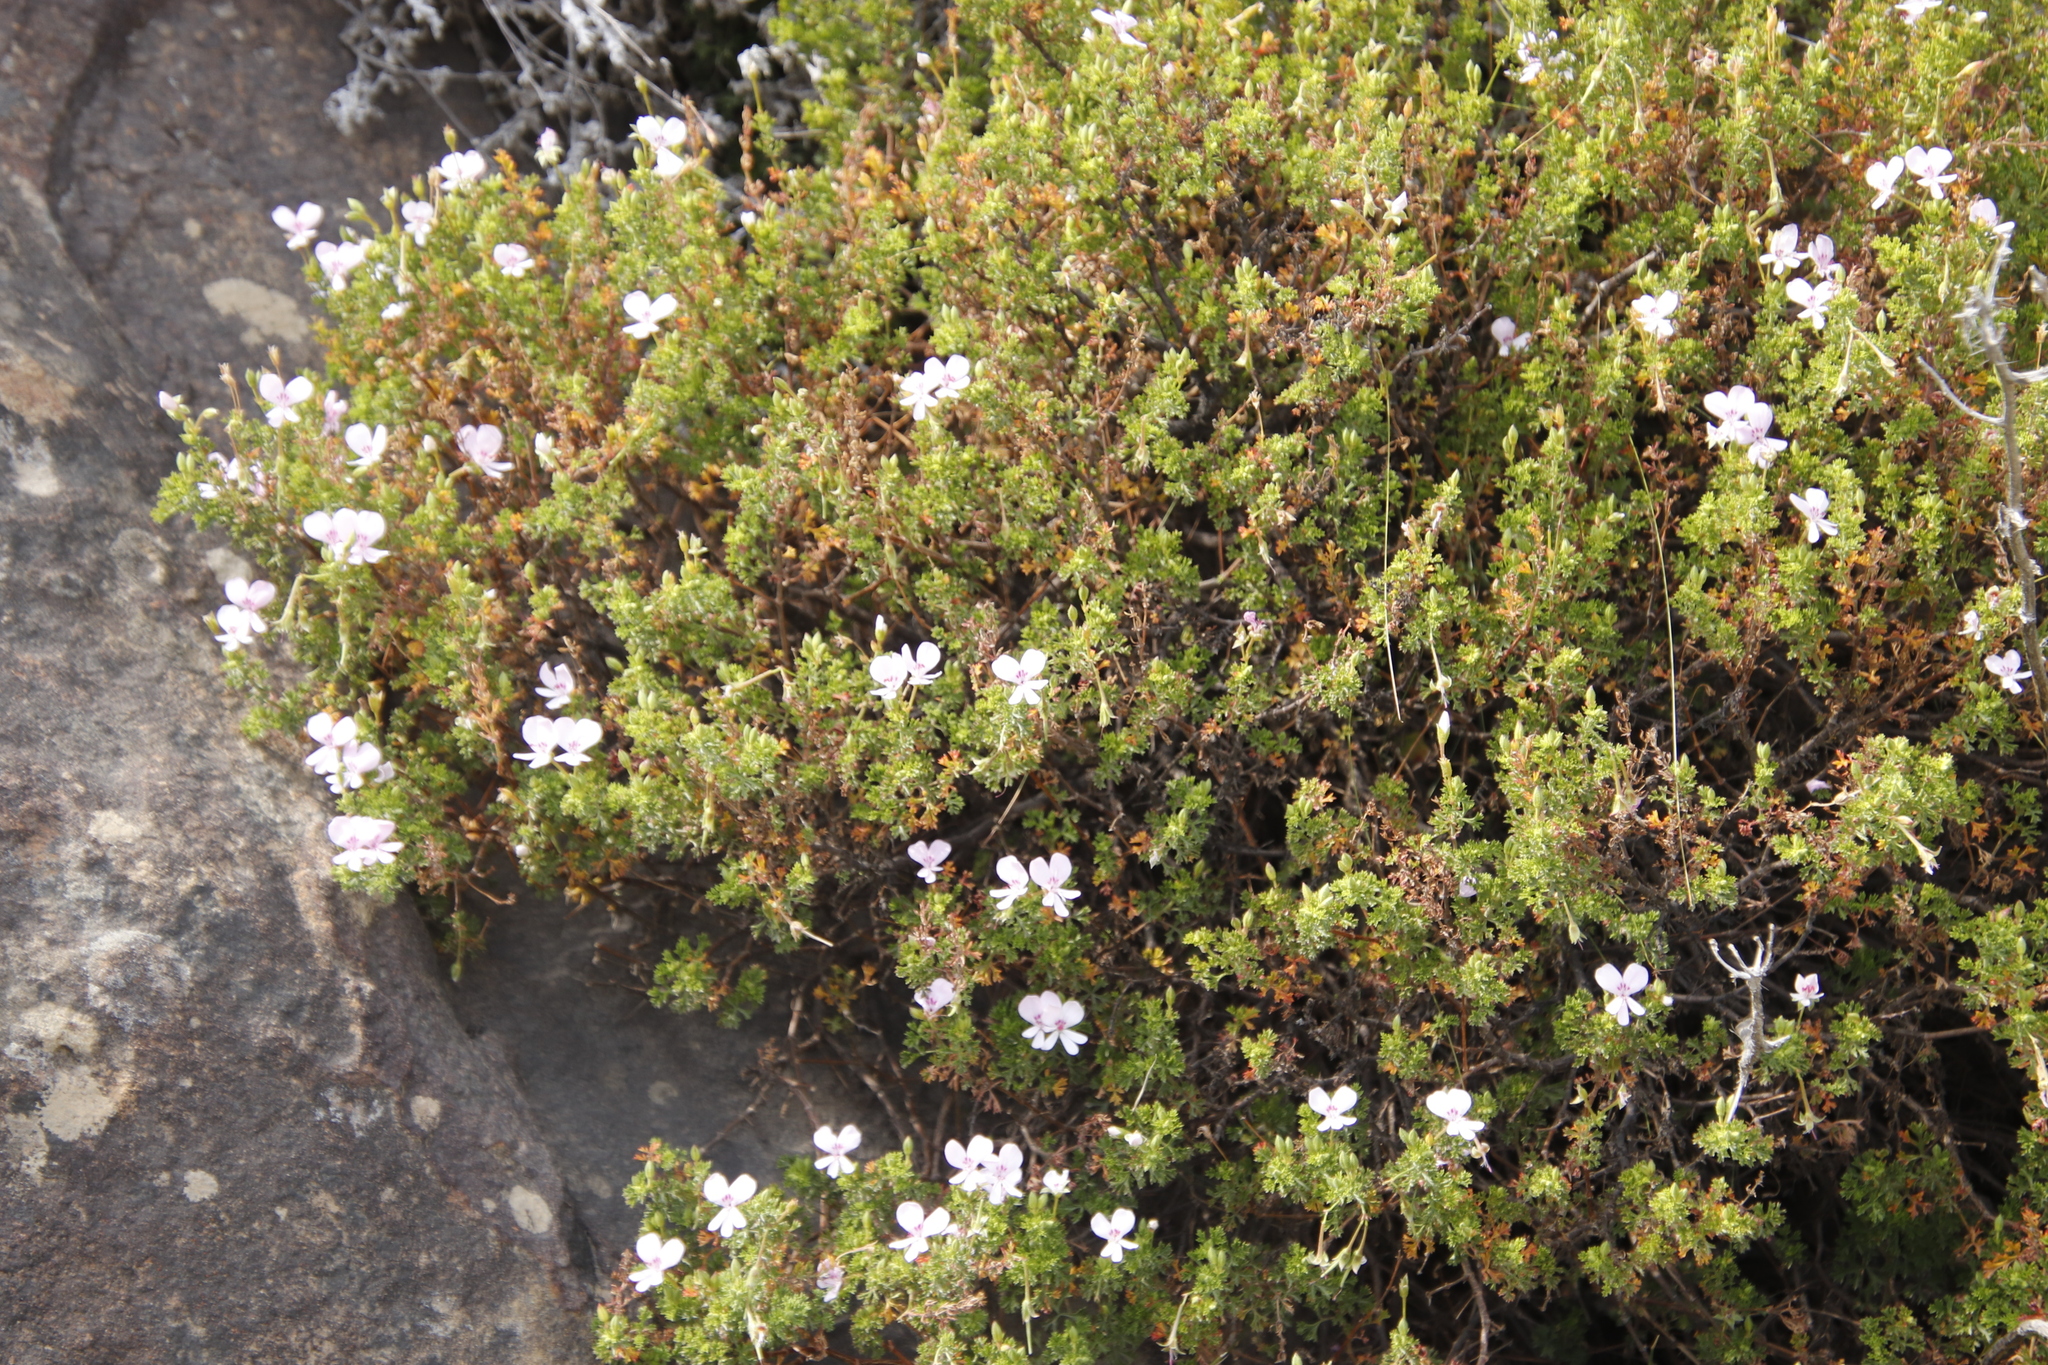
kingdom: Plantae
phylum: Tracheophyta
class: Magnoliopsida
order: Geraniales
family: Geraniaceae
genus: Pelargonium
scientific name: Pelargonium fruticosum
